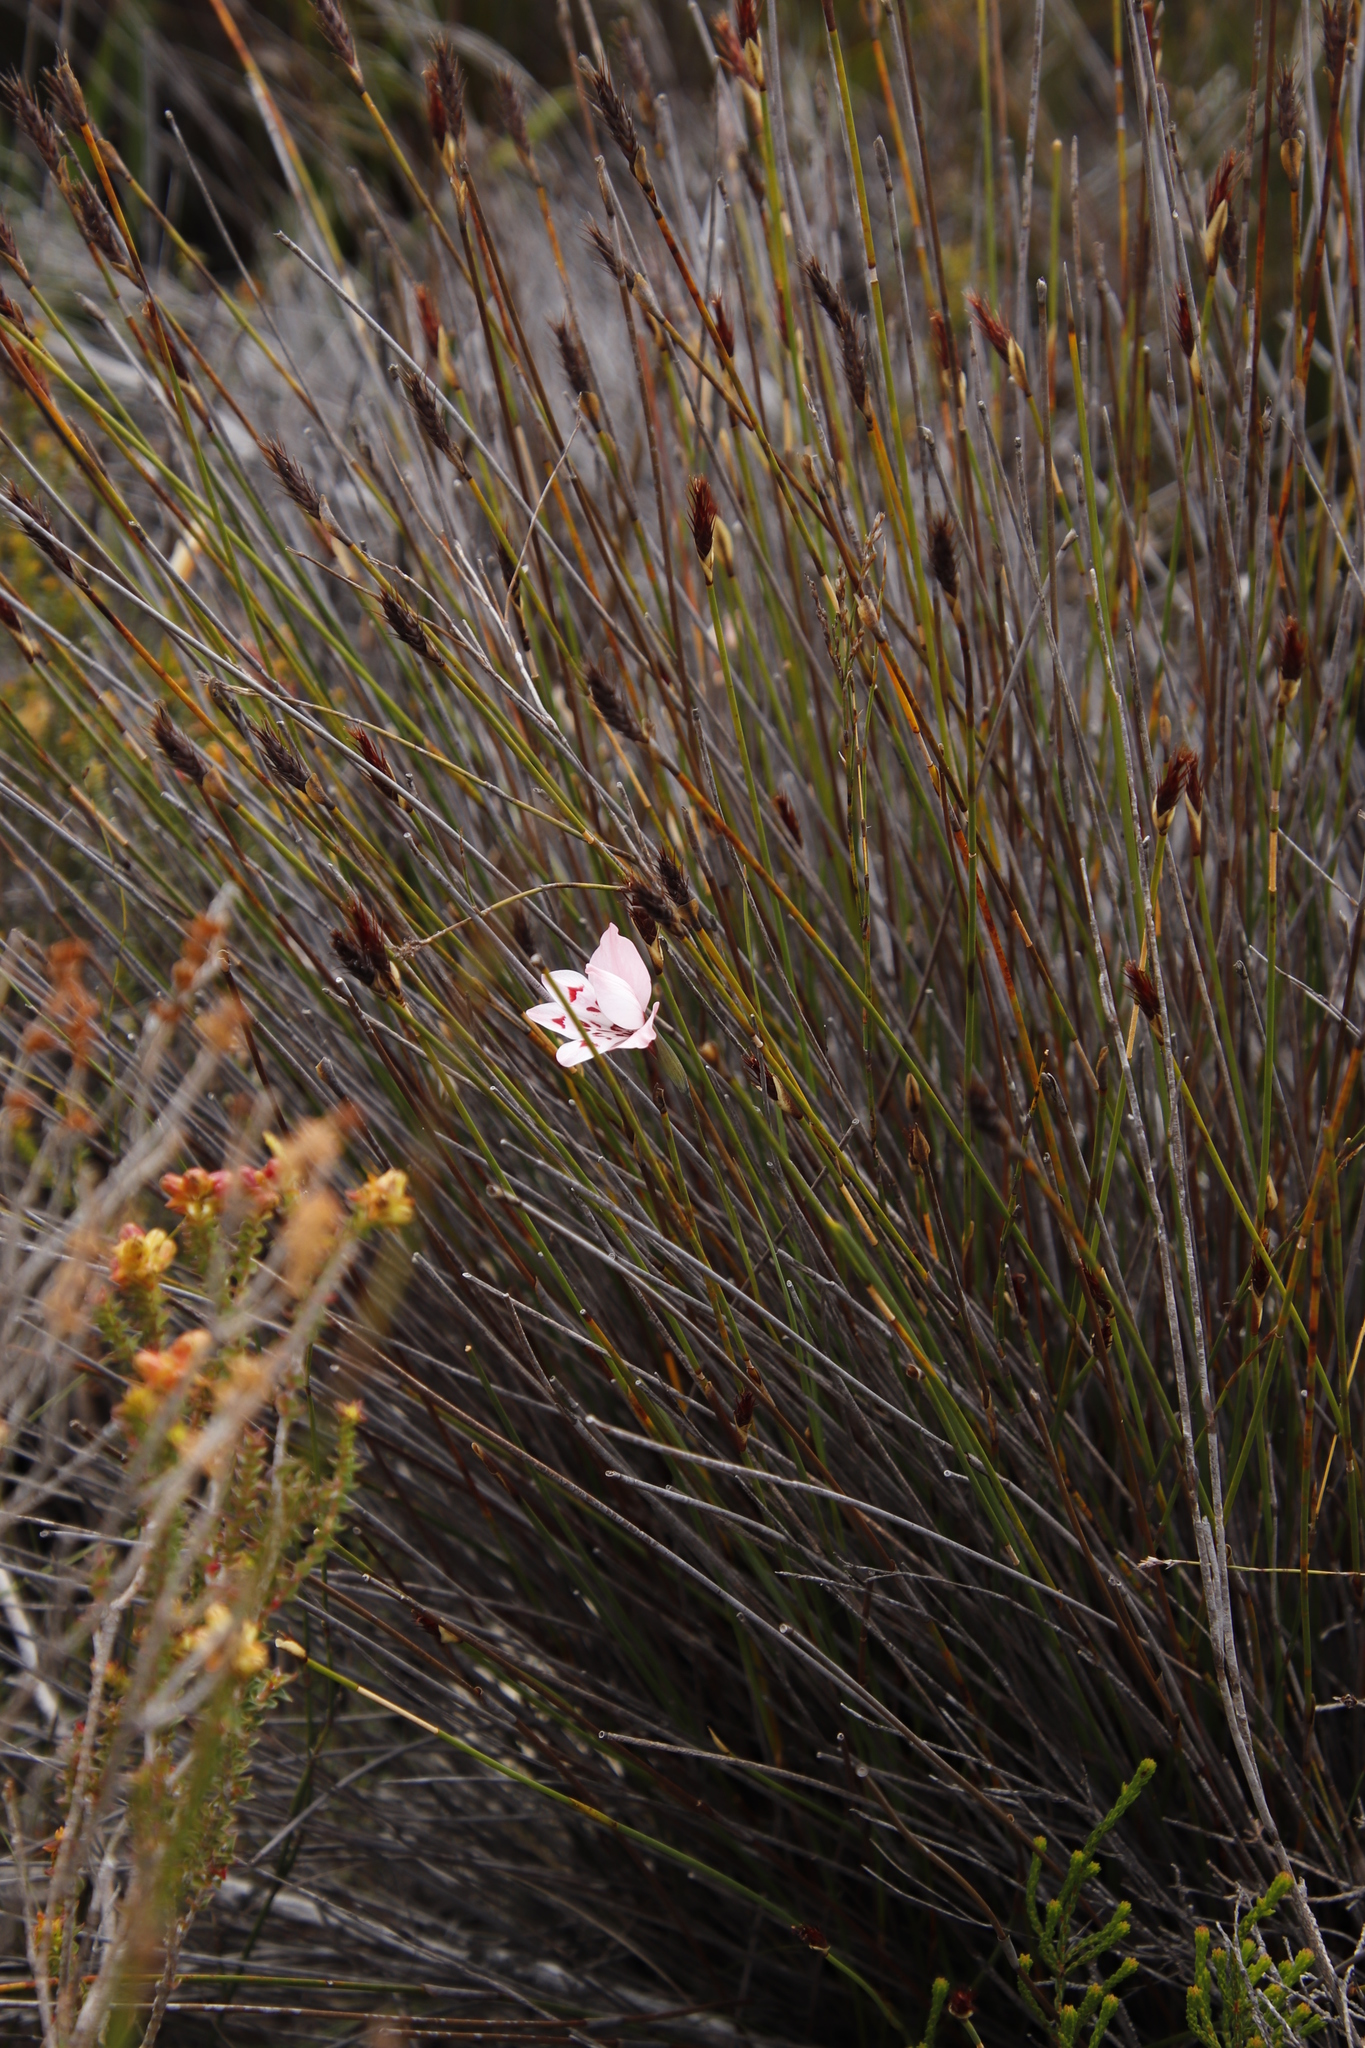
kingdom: Plantae
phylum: Tracheophyta
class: Liliopsida
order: Asparagales
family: Iridaceae
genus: Gladiolus
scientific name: Gladiolus debilis
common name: Painted-lady
